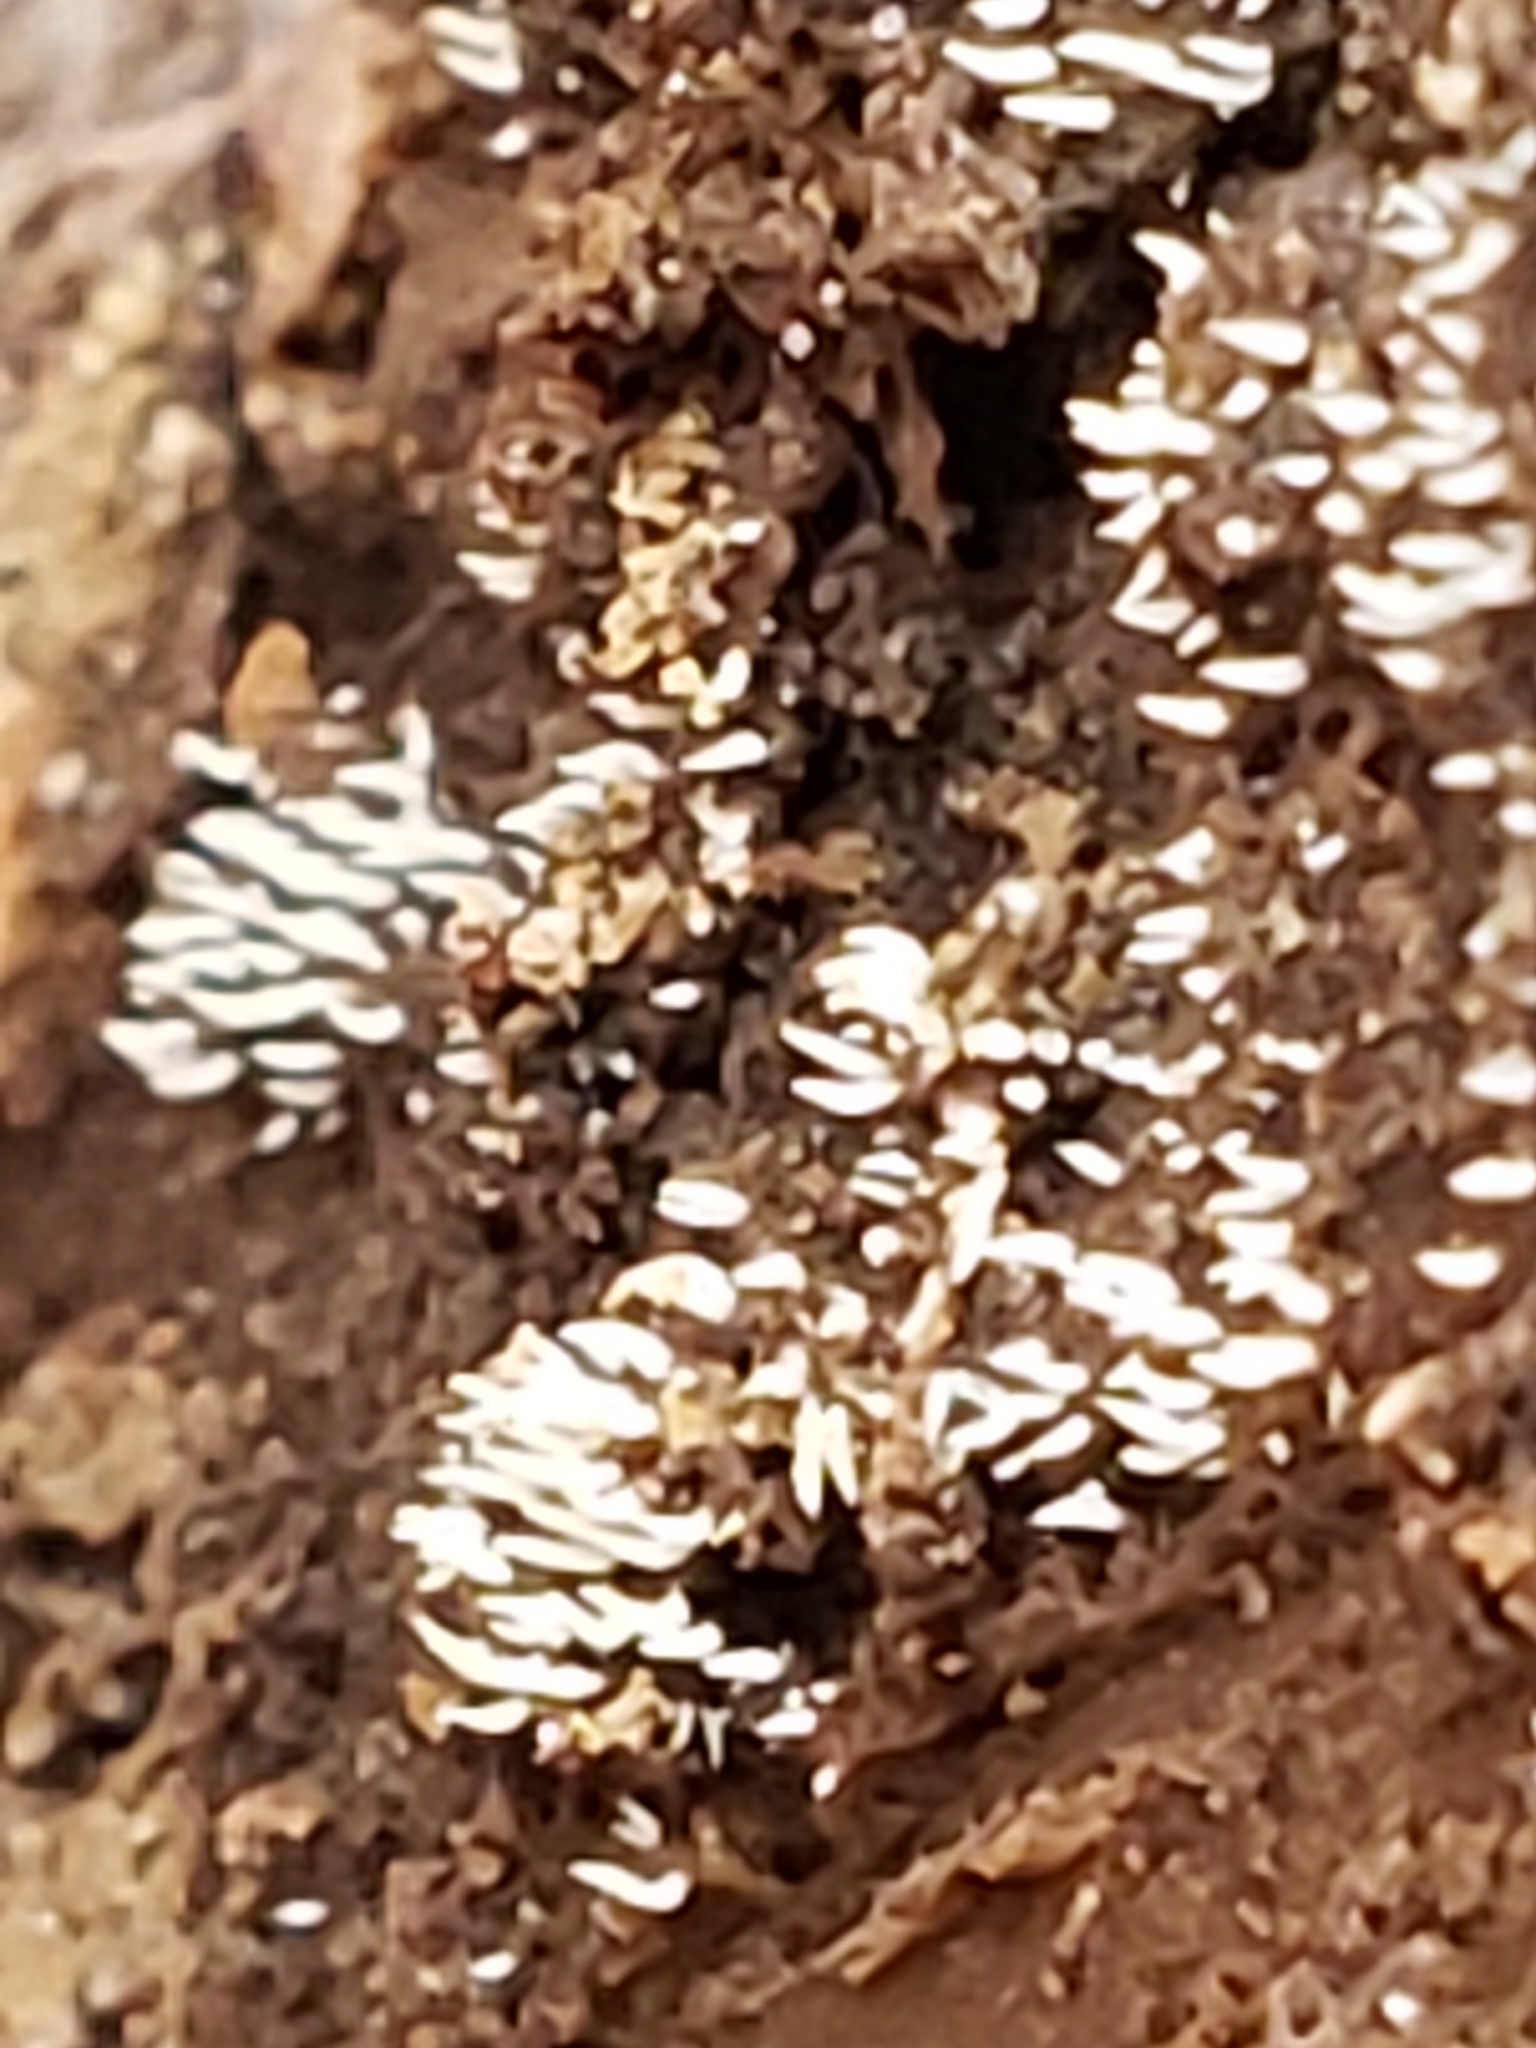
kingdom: Fungi
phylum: Basidiomycota
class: Agaricomycetes
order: Agaricales
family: Clavariaceae
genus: Mucronella
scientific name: Mucronella calva
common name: Swarming spine
